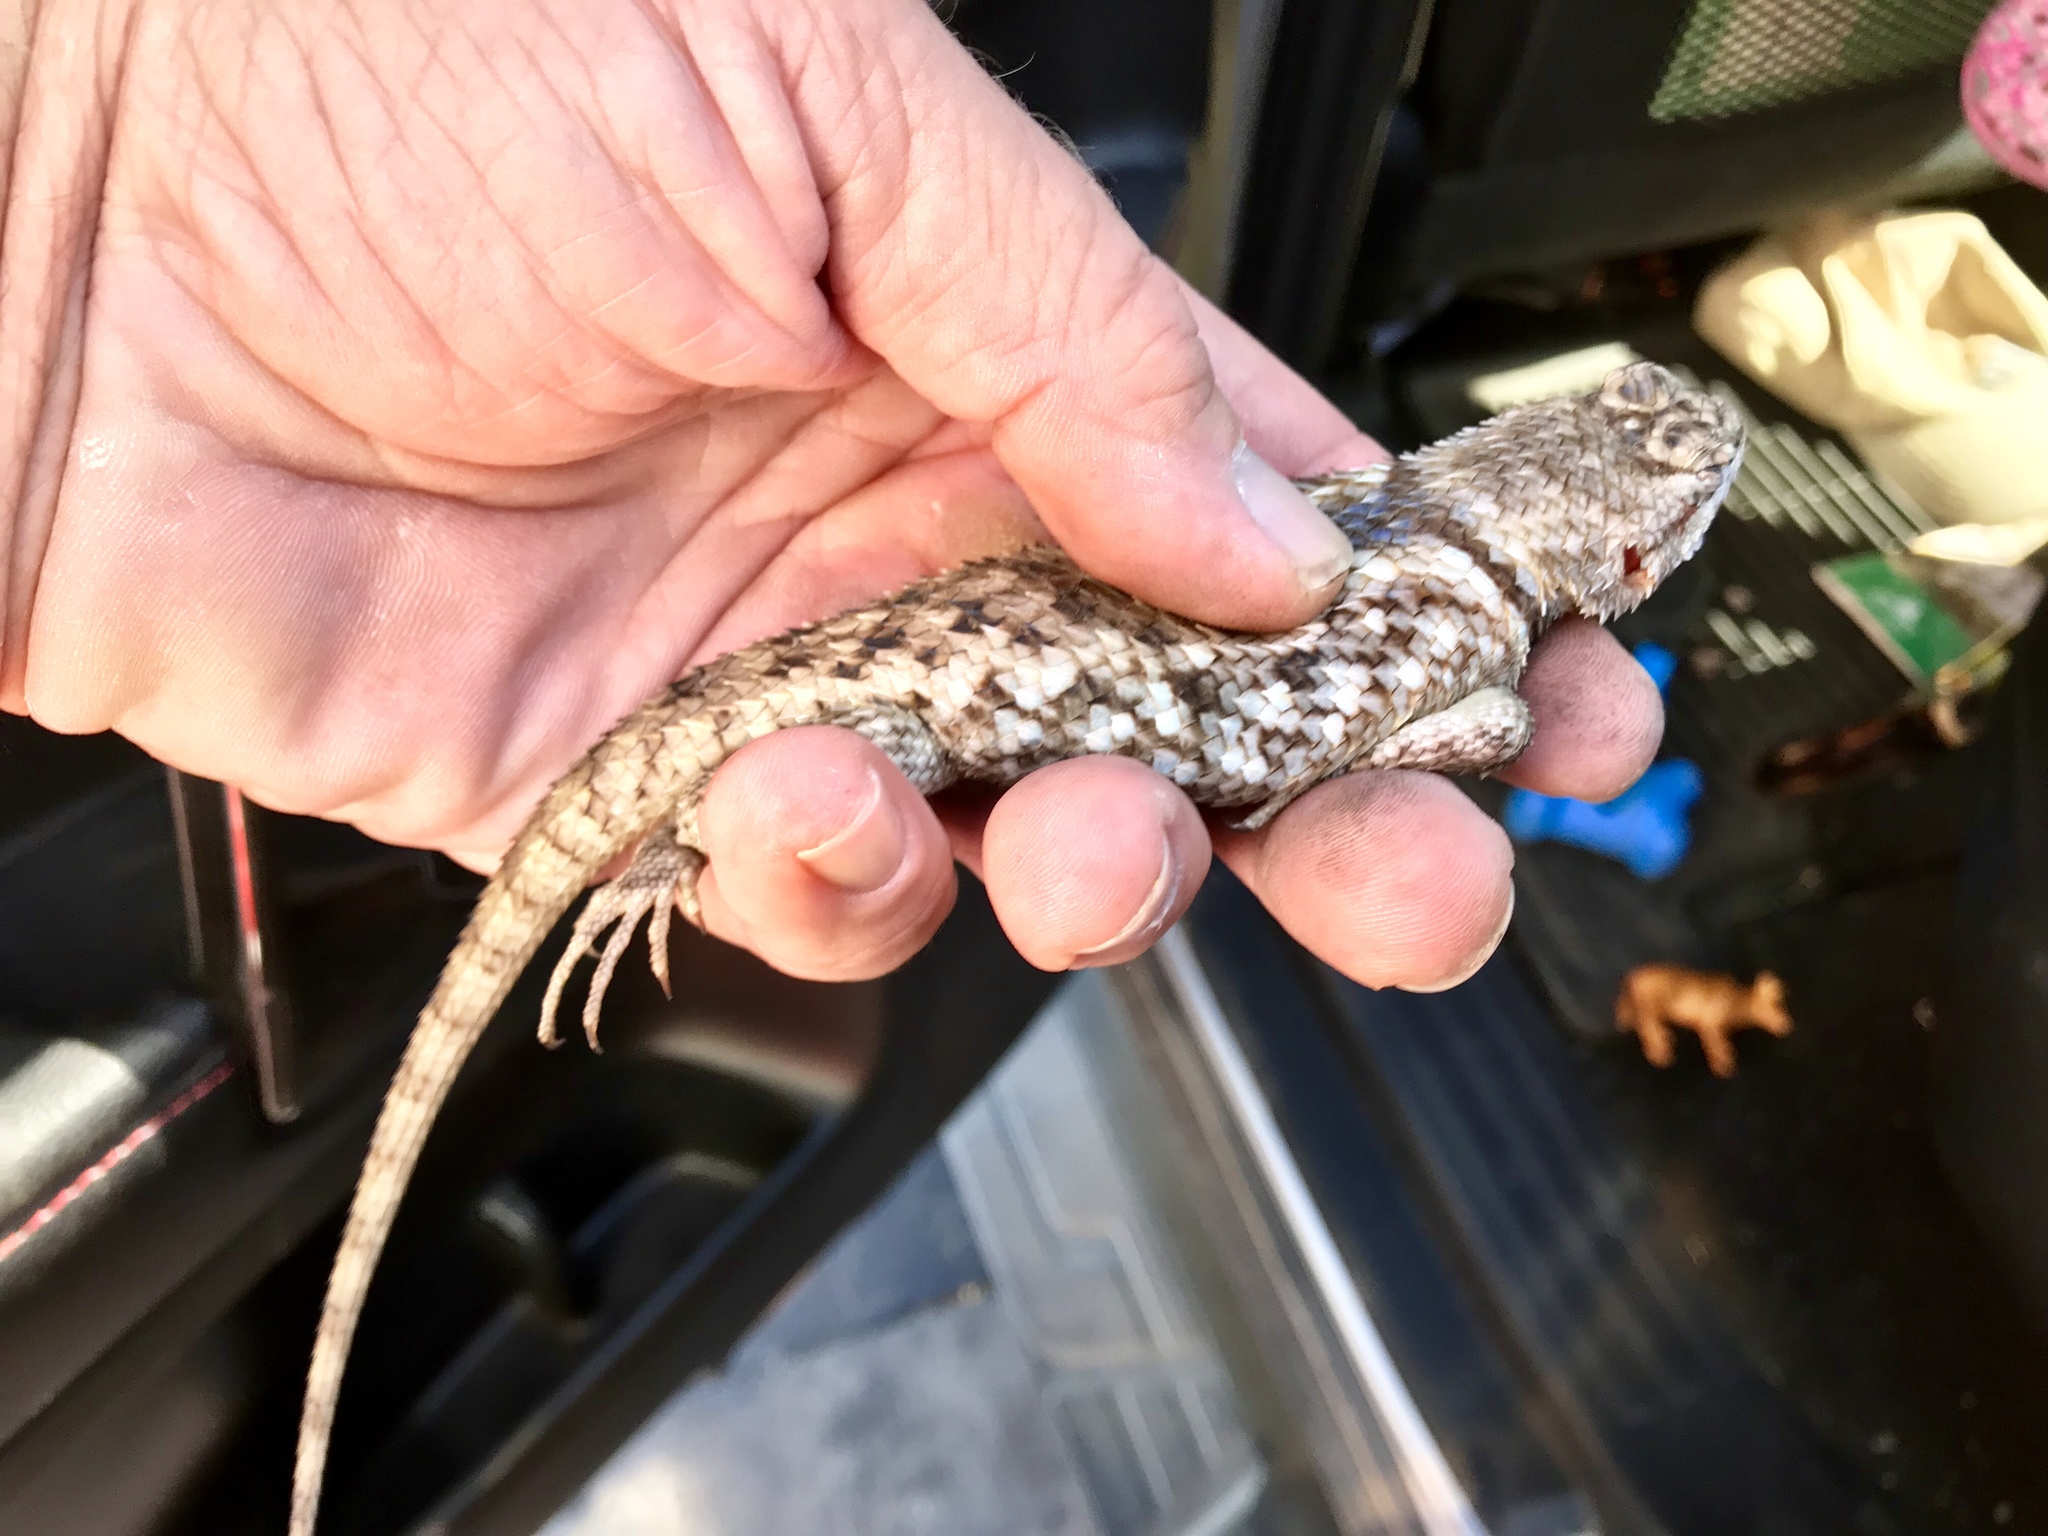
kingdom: Animalia
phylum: Chordata
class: Squamata
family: Phrynosomatidae
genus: Sceloporus
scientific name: Sceloporus magister
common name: Desert spiny lizard
